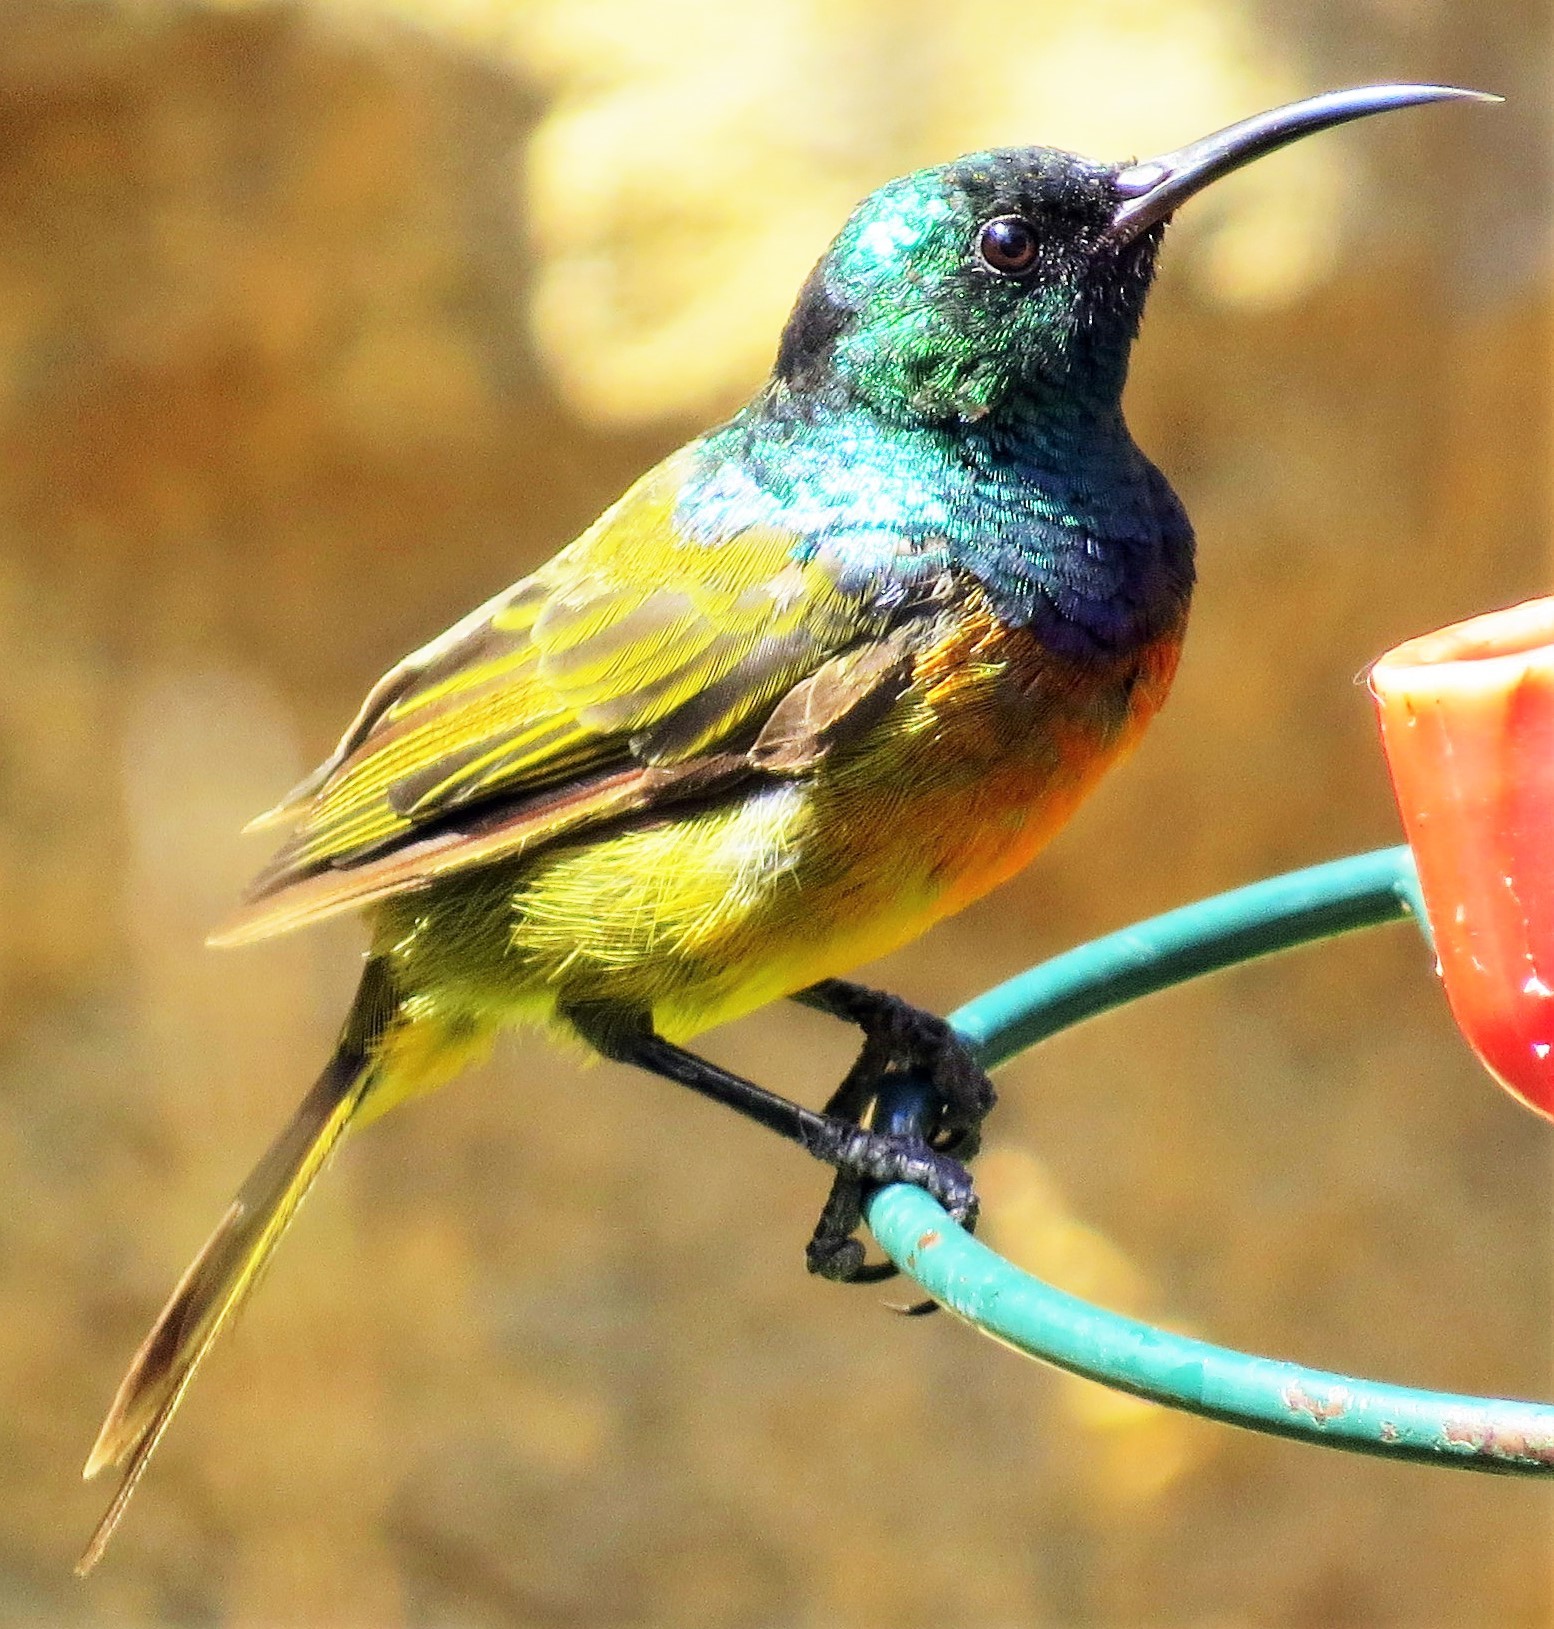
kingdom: Animalia
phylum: Chordata
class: Aves
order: Passeriformes
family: Nectariniidae
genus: Anthobaphes
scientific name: Anthobaphes violacea
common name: Orange-breasted sunbird
